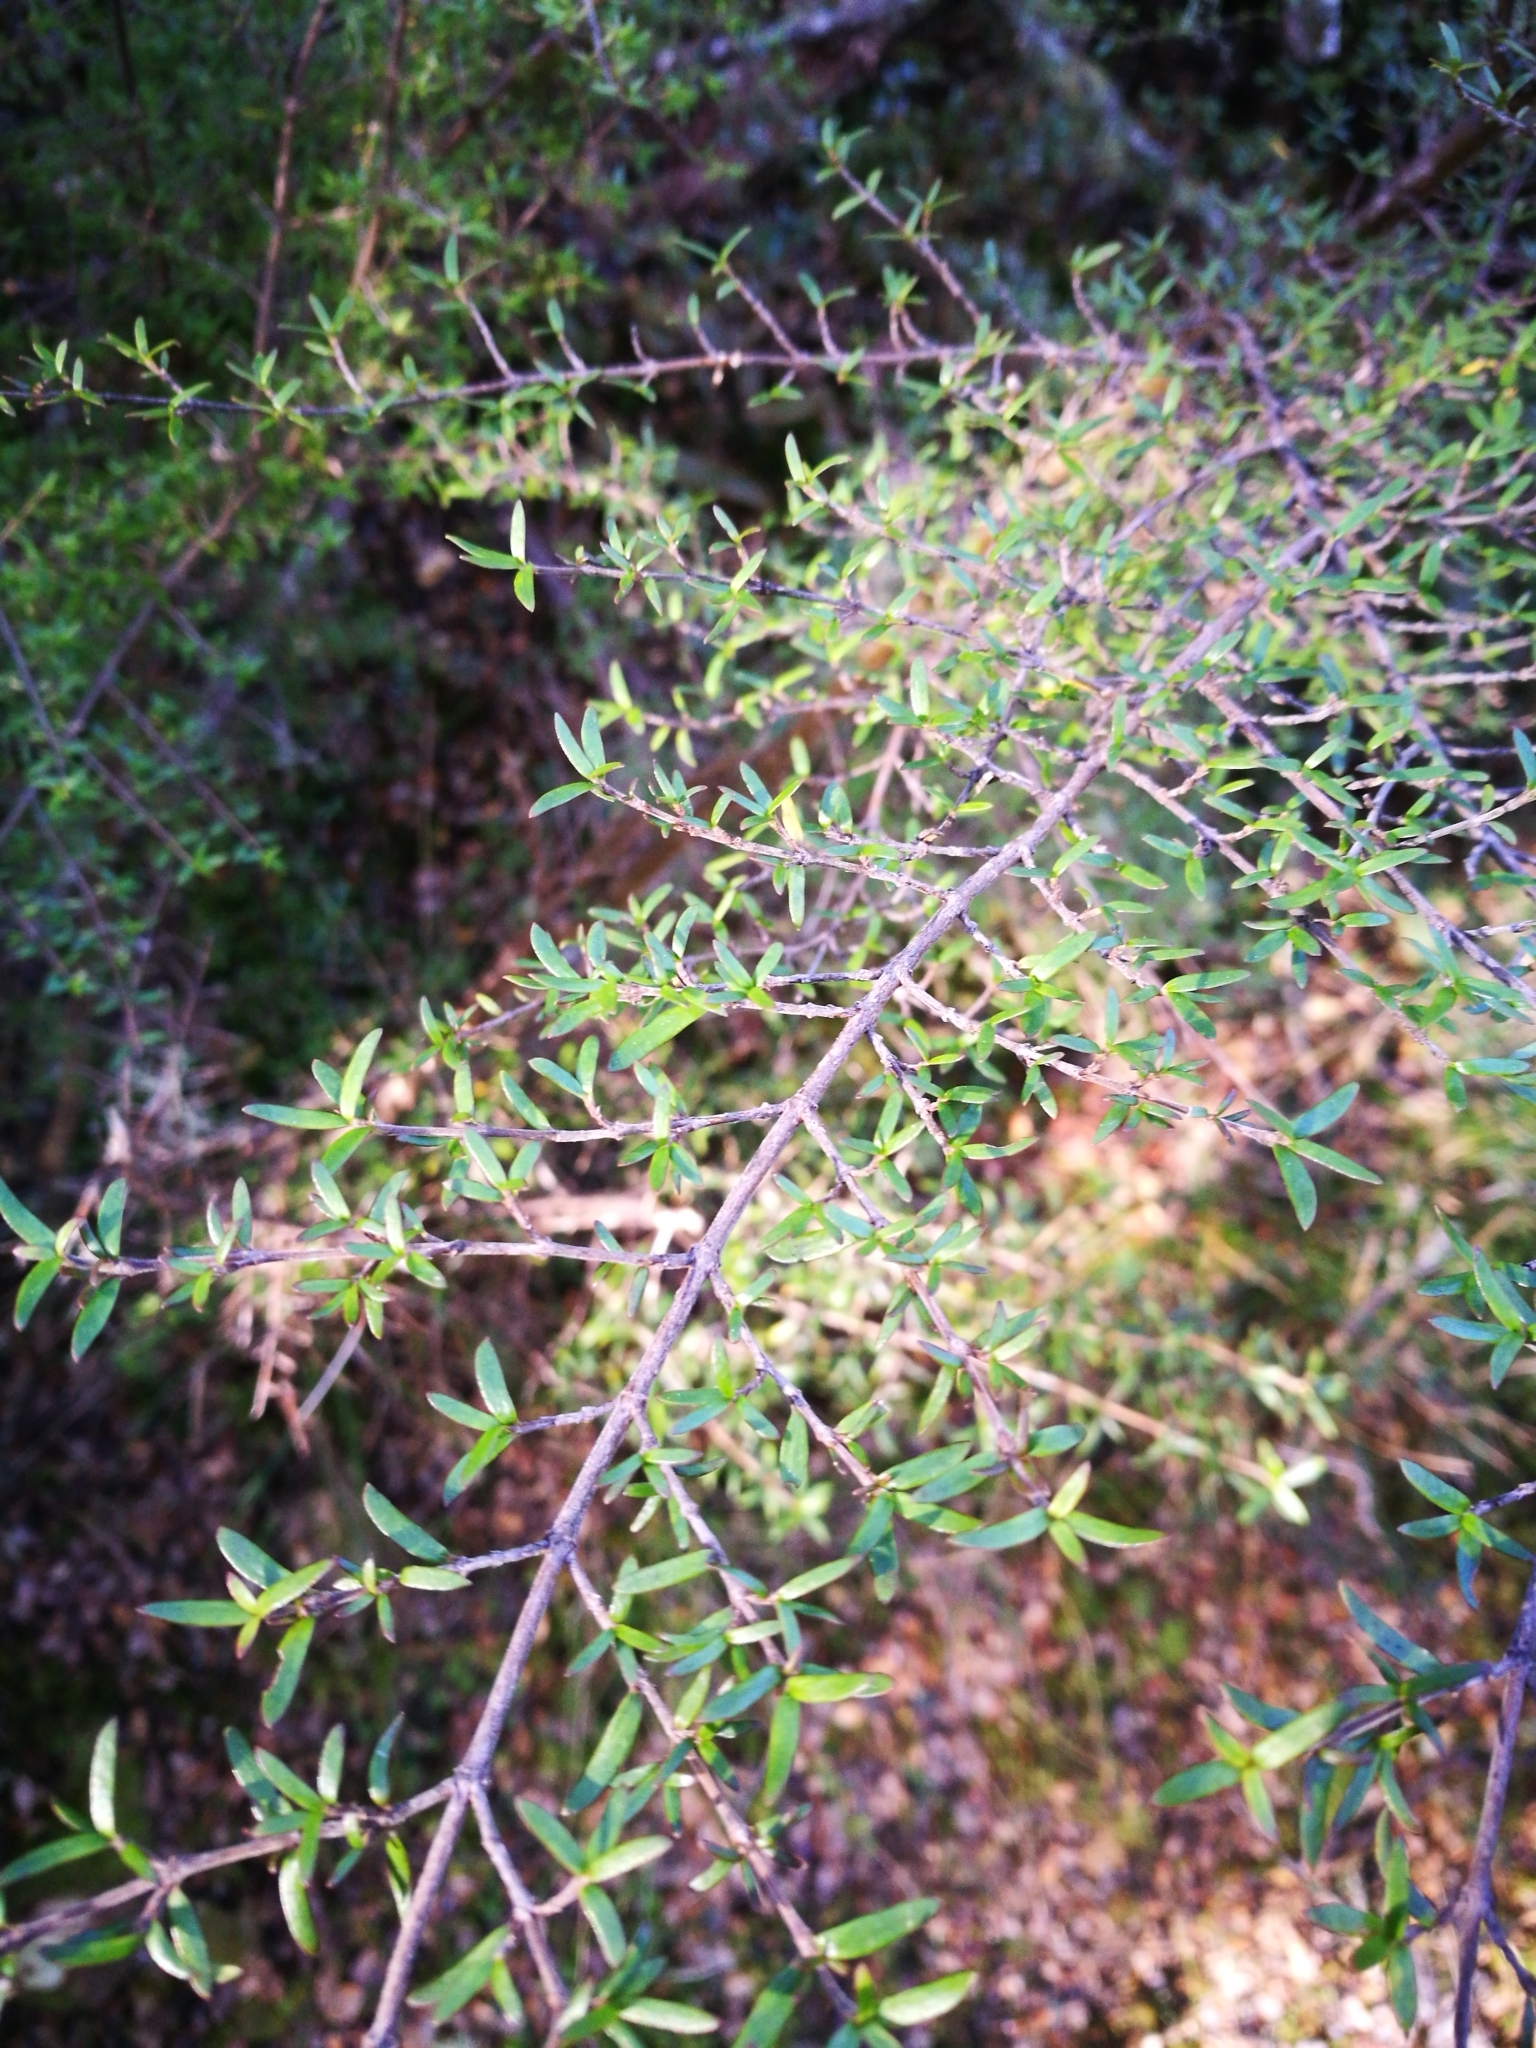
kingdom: Plantae
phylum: Tracheophyta
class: Magnoliopsida
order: Gentianales
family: Rubiaceae
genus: Coprosma
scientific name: Coprosma microcarpa
